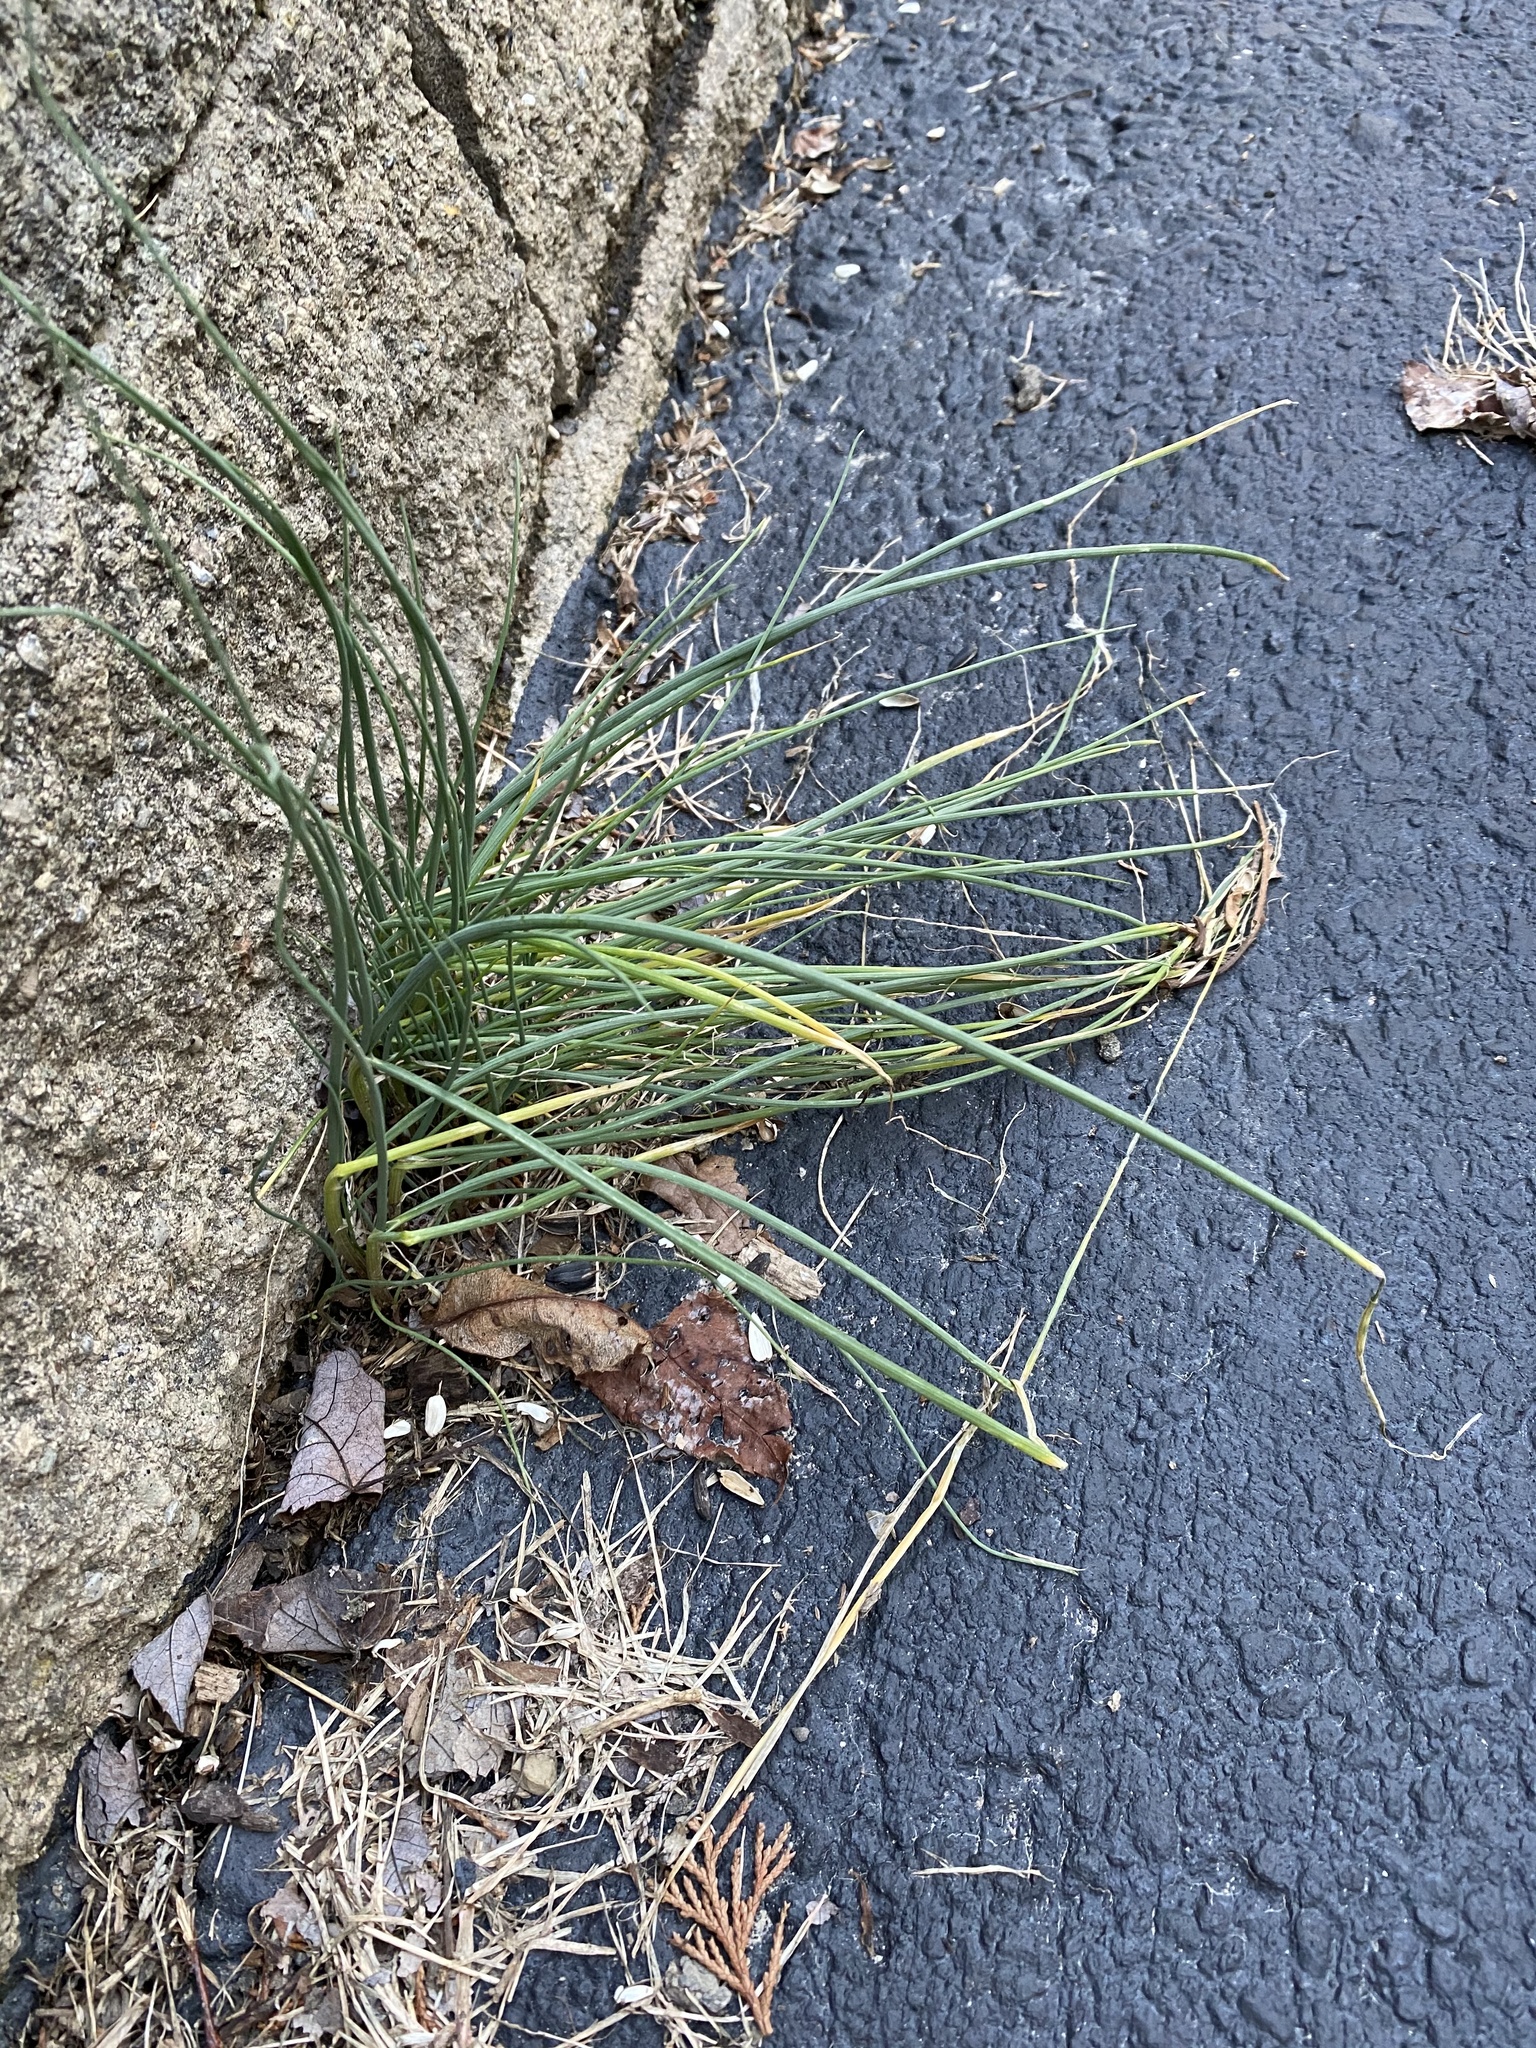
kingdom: Plantae
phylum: Tracheophyta
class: Liliopsida
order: Asparagales
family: Amaryllidaceae
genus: Allium
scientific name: Allium vineale
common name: Crow garlic
